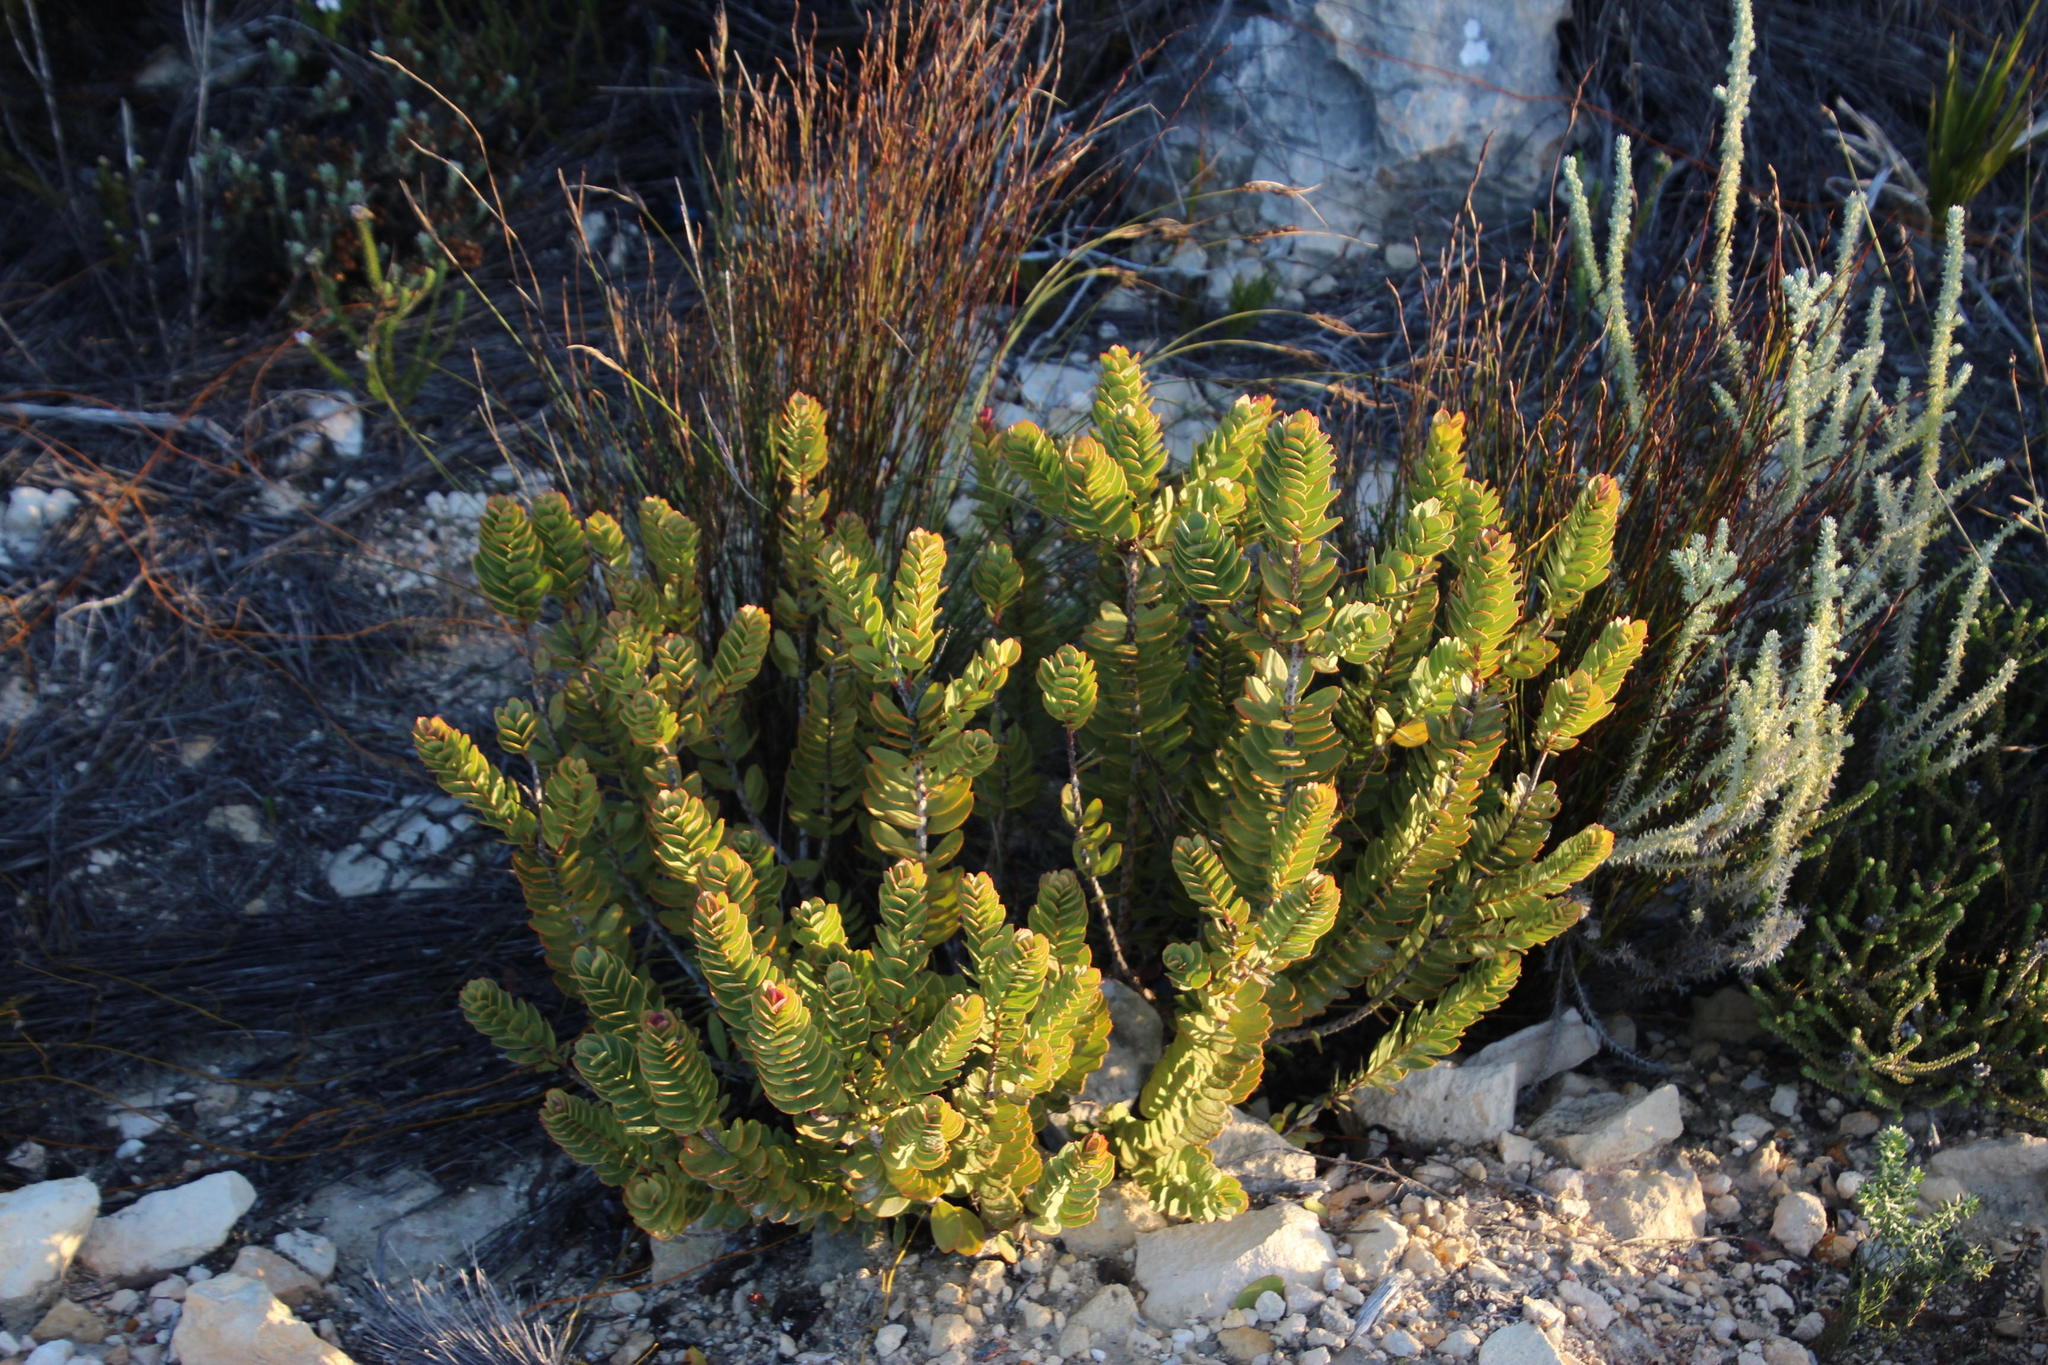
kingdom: Plantae
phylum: Tracheophyta
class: Magnoliopsida
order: Santalales
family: Santalaceae
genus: Osyris
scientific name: Osyris speciosa
